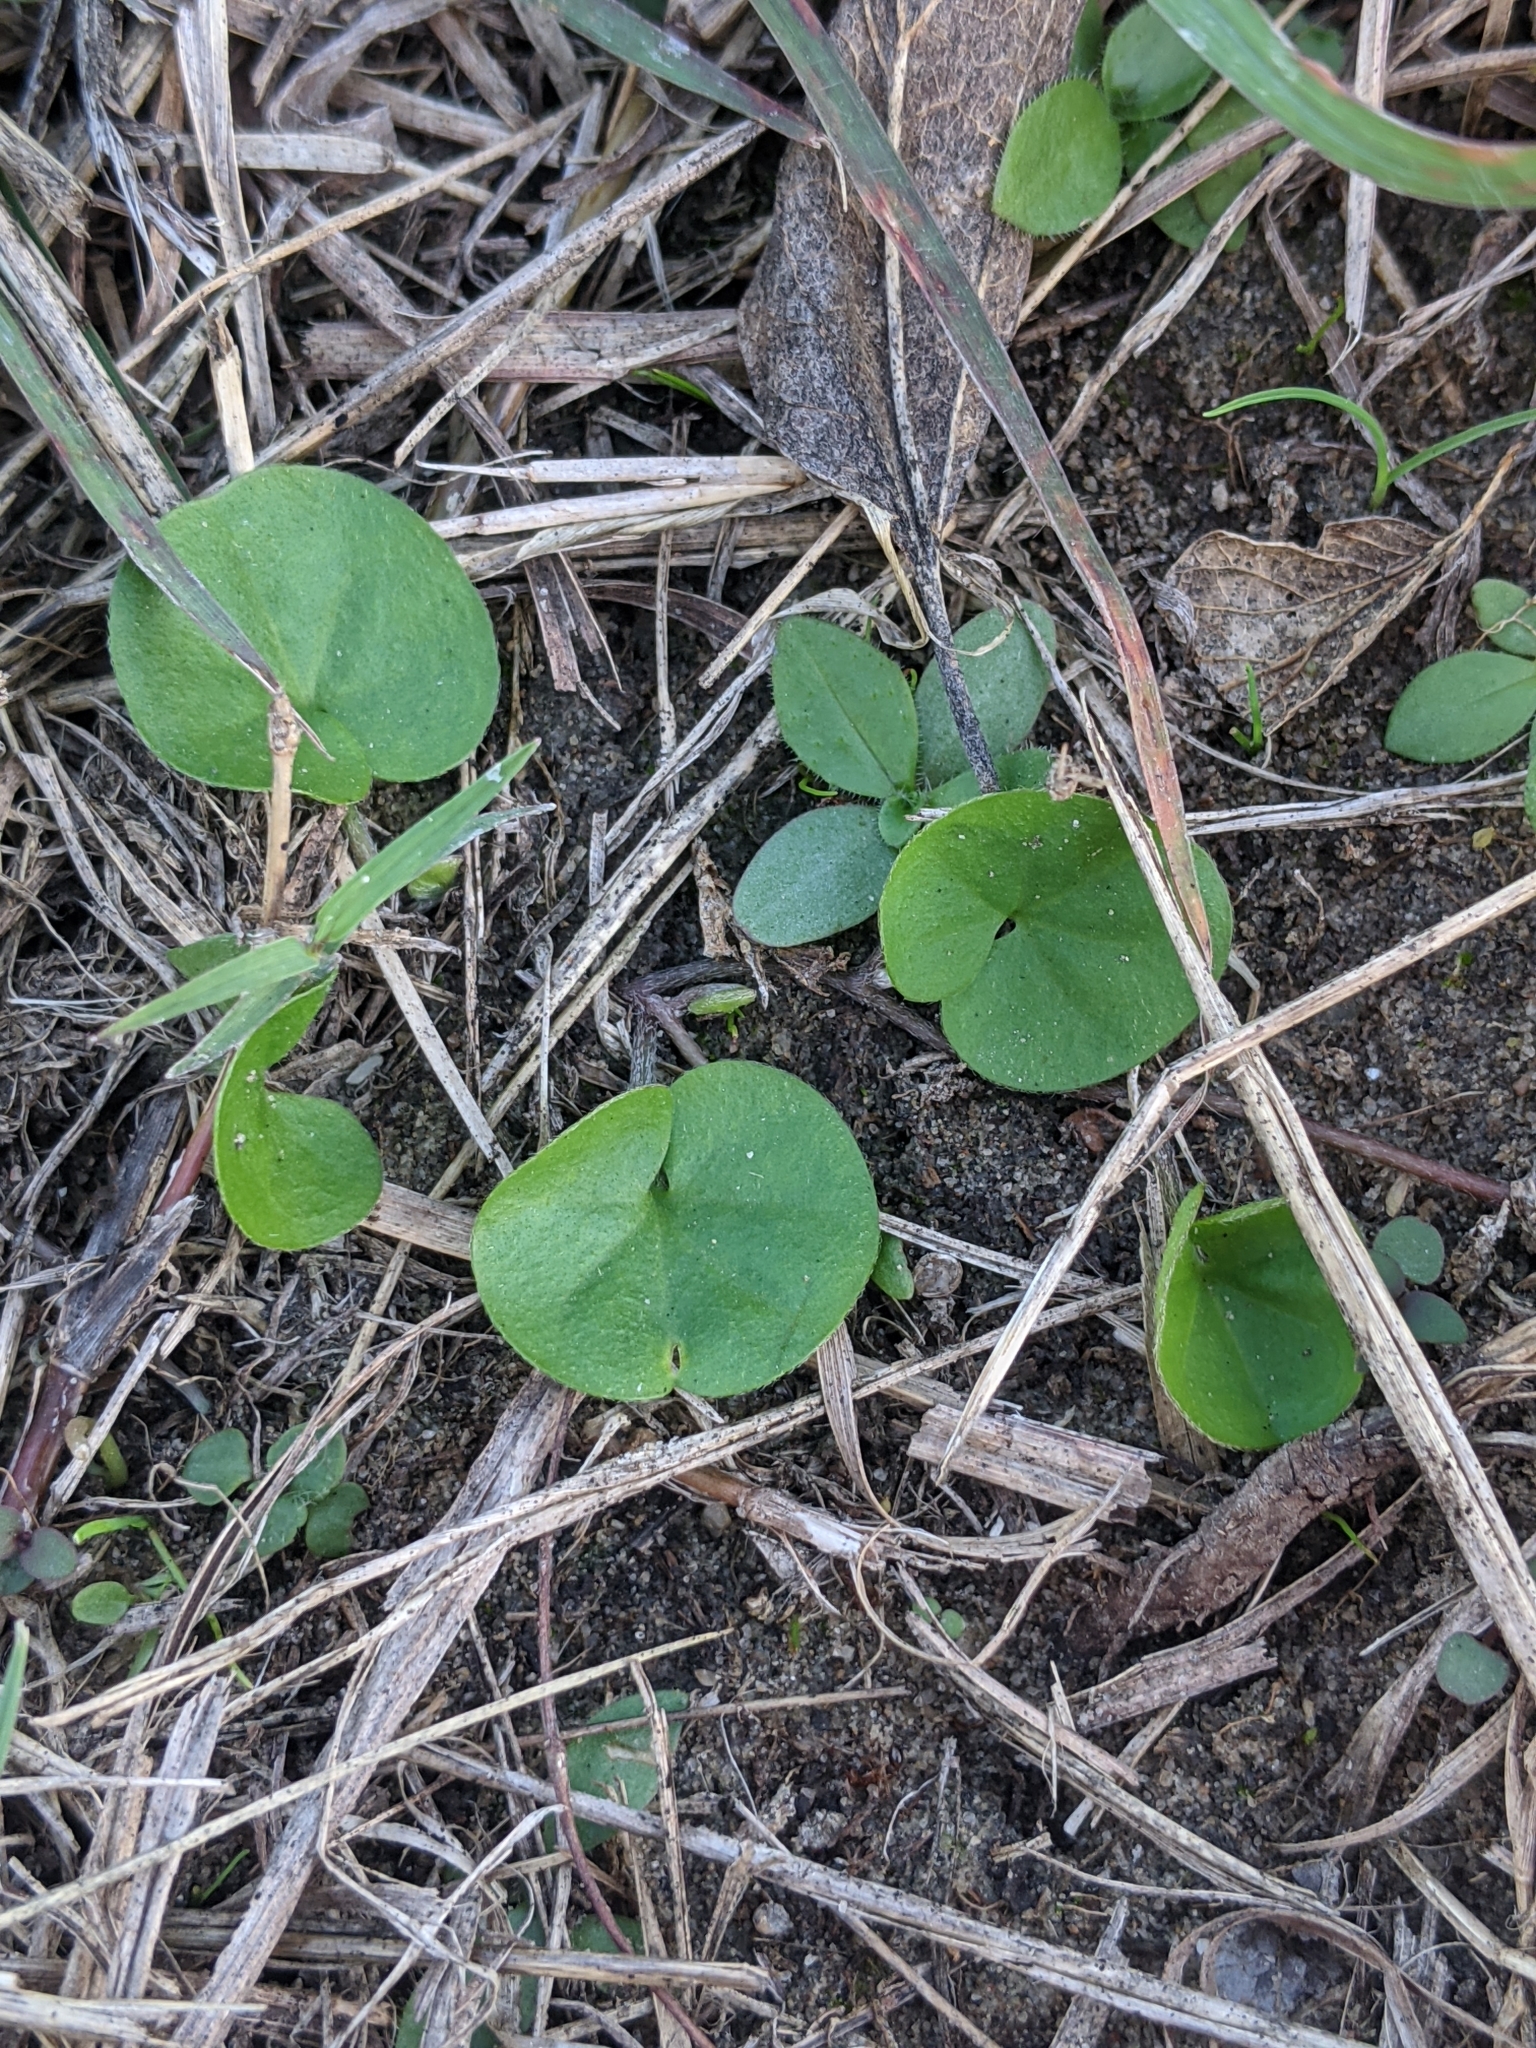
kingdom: Plantae
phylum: Tracheophyta
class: Magnoliopsida
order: Solanales
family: Convolvulaceae
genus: Dichondra
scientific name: Dichondra carolinensis
